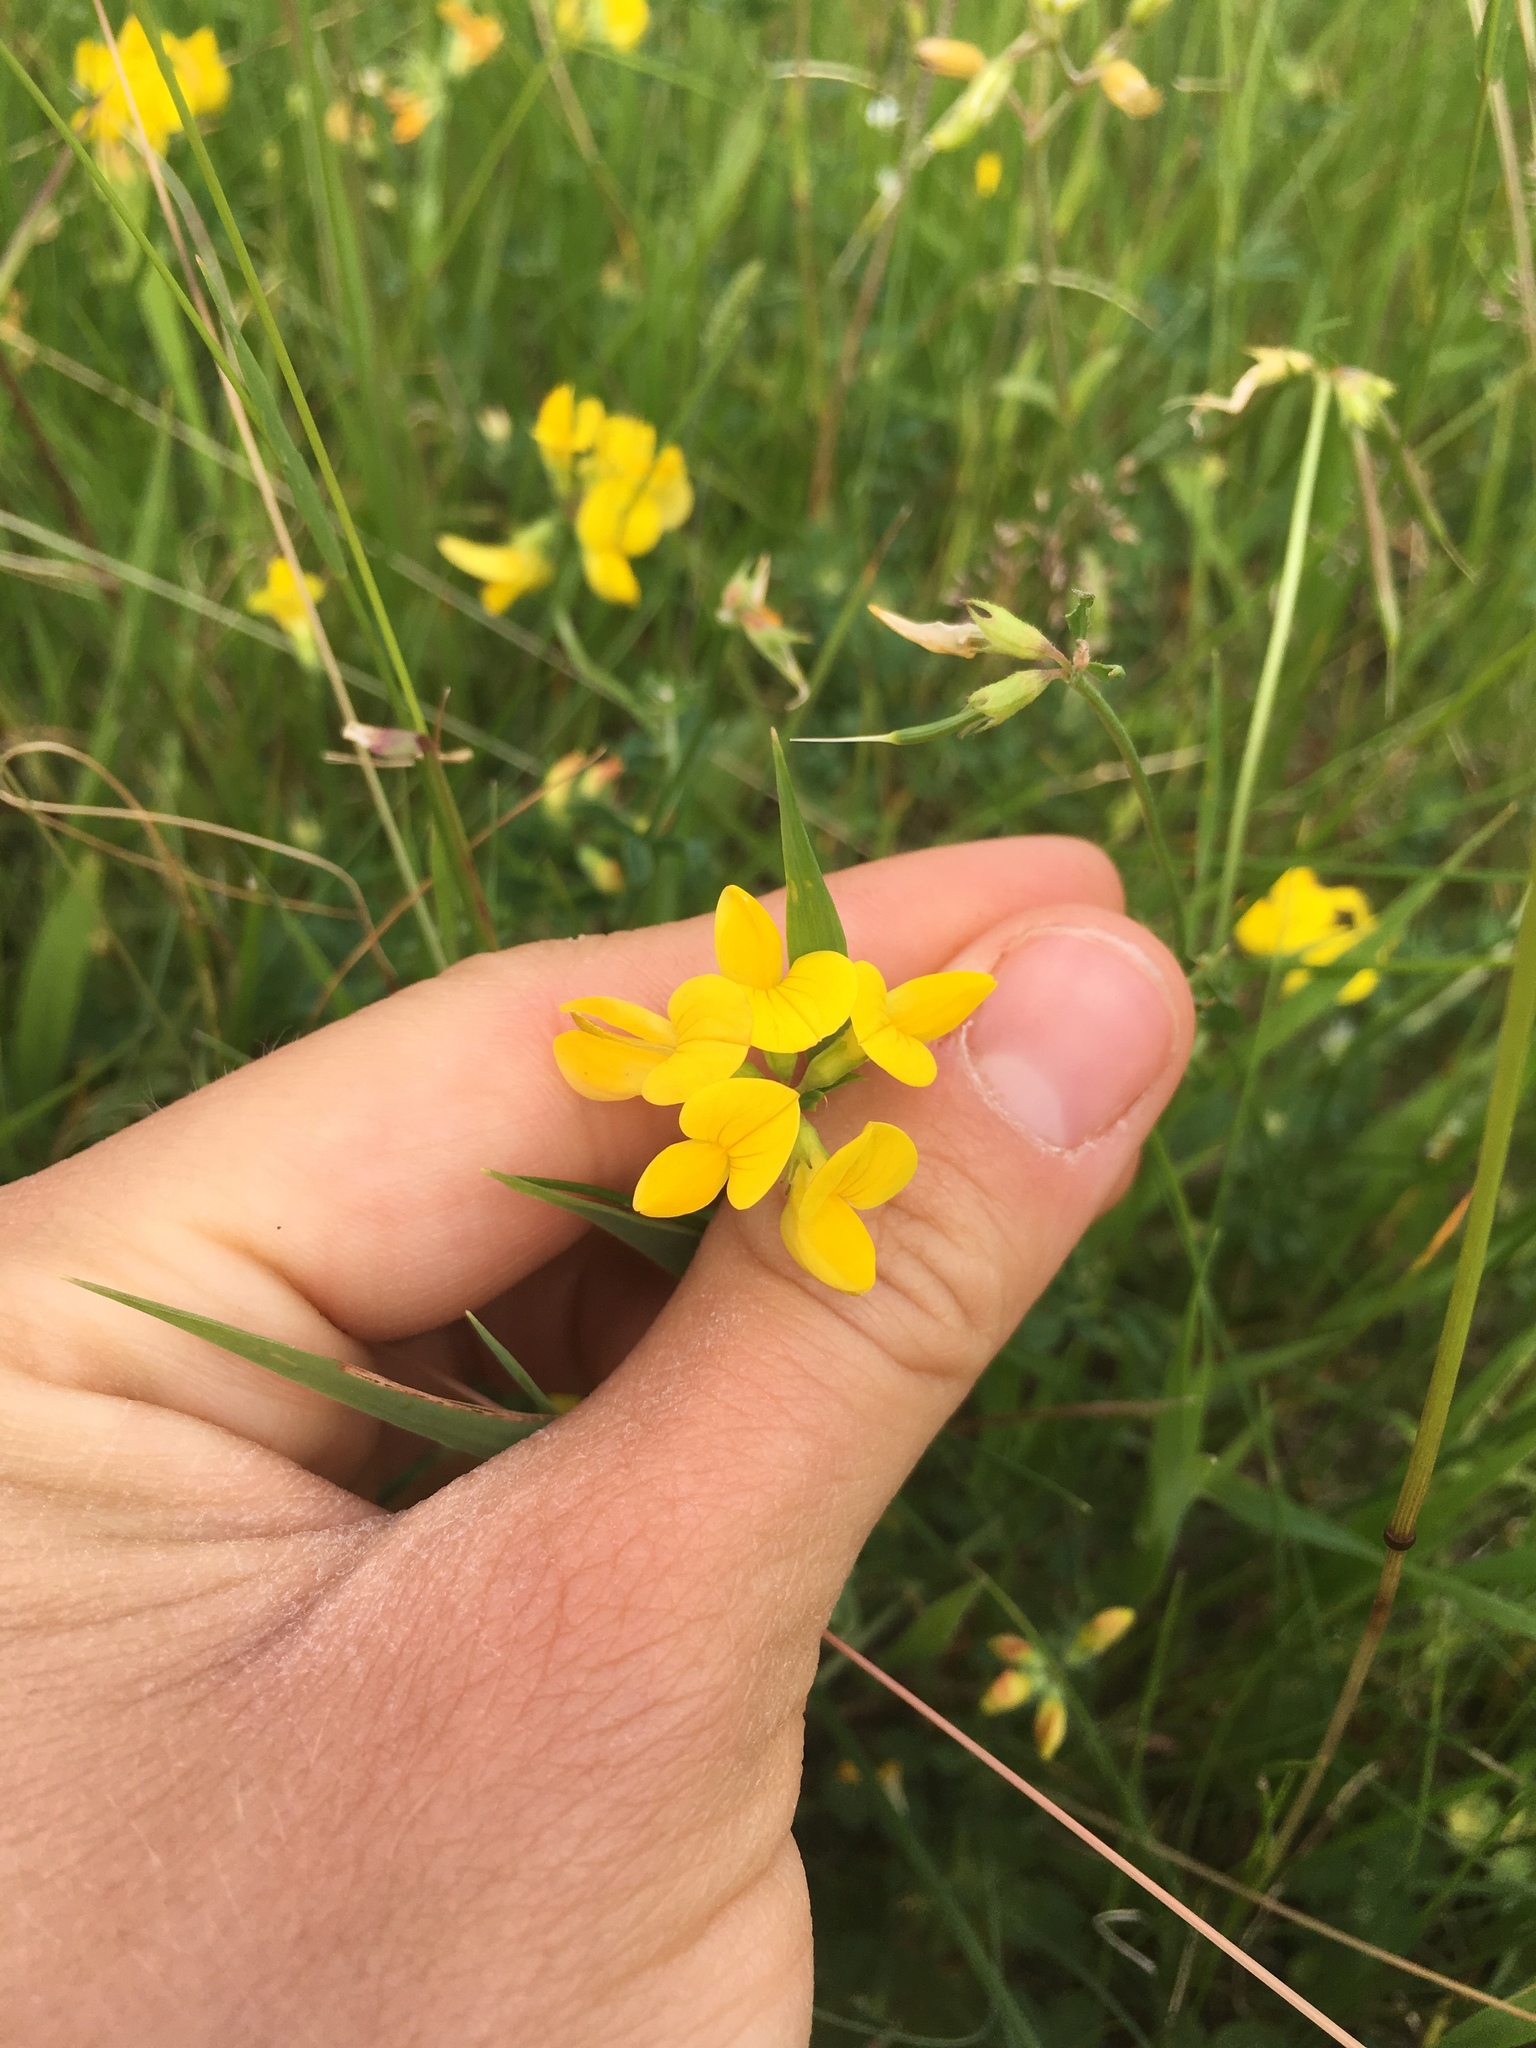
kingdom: Plantae
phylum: Tracheophyta
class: Magnoliopsida
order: Fabales
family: Fabaceae
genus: Lotus
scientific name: Lotus corniculatus
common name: Common bird's-foot-trefoil
